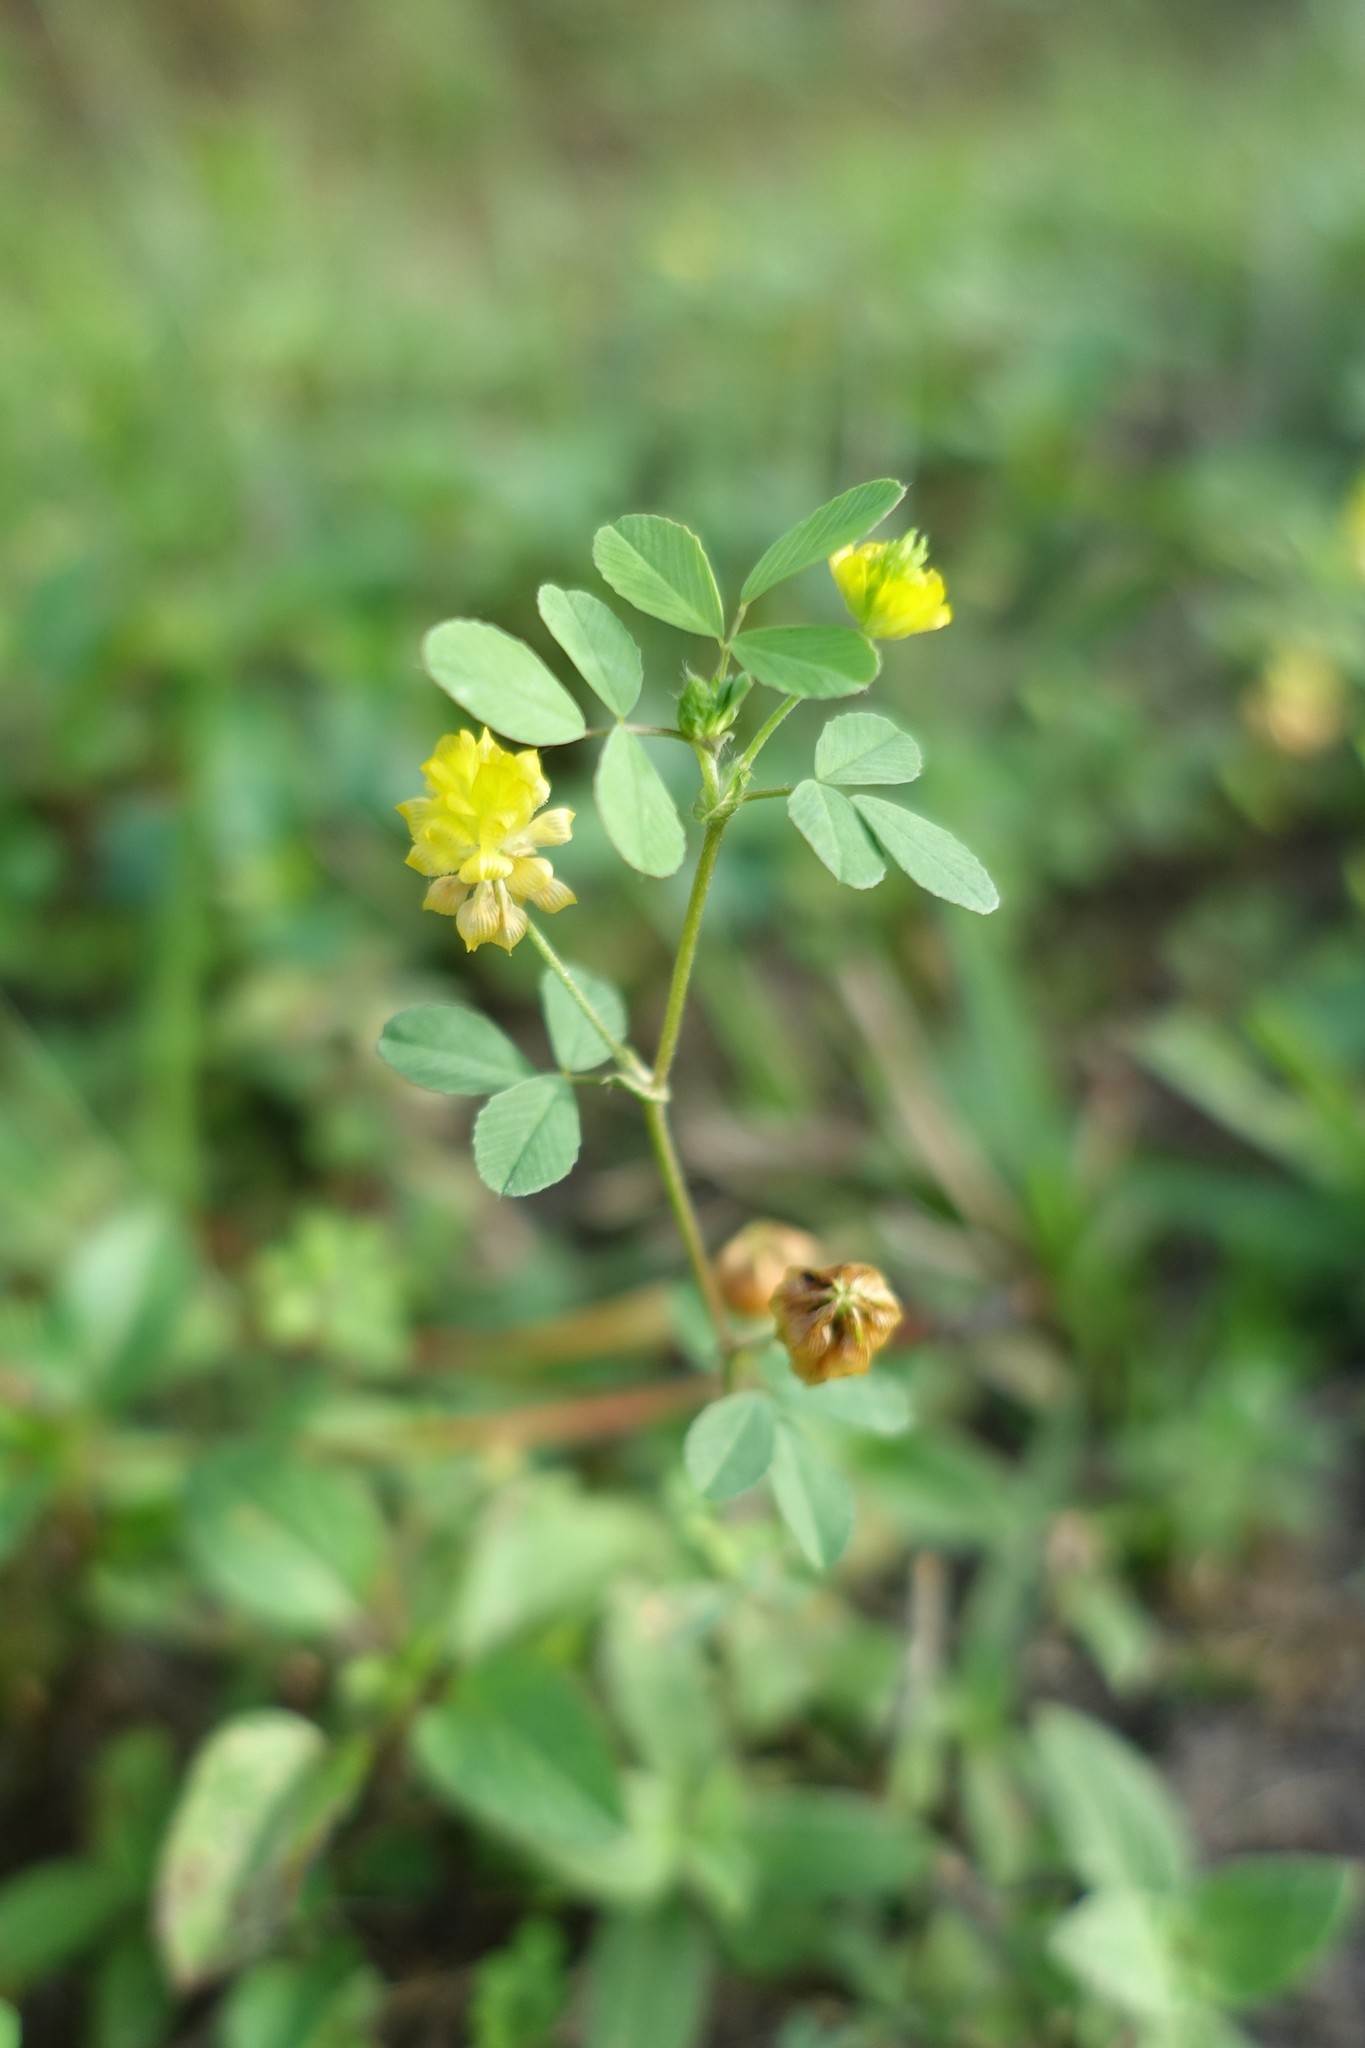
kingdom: Plantae
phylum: Tracheophyta
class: Magnoliopsida
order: Fabales
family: Fabaceae
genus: Trifolium
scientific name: Trifolium campestre
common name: Field clover
